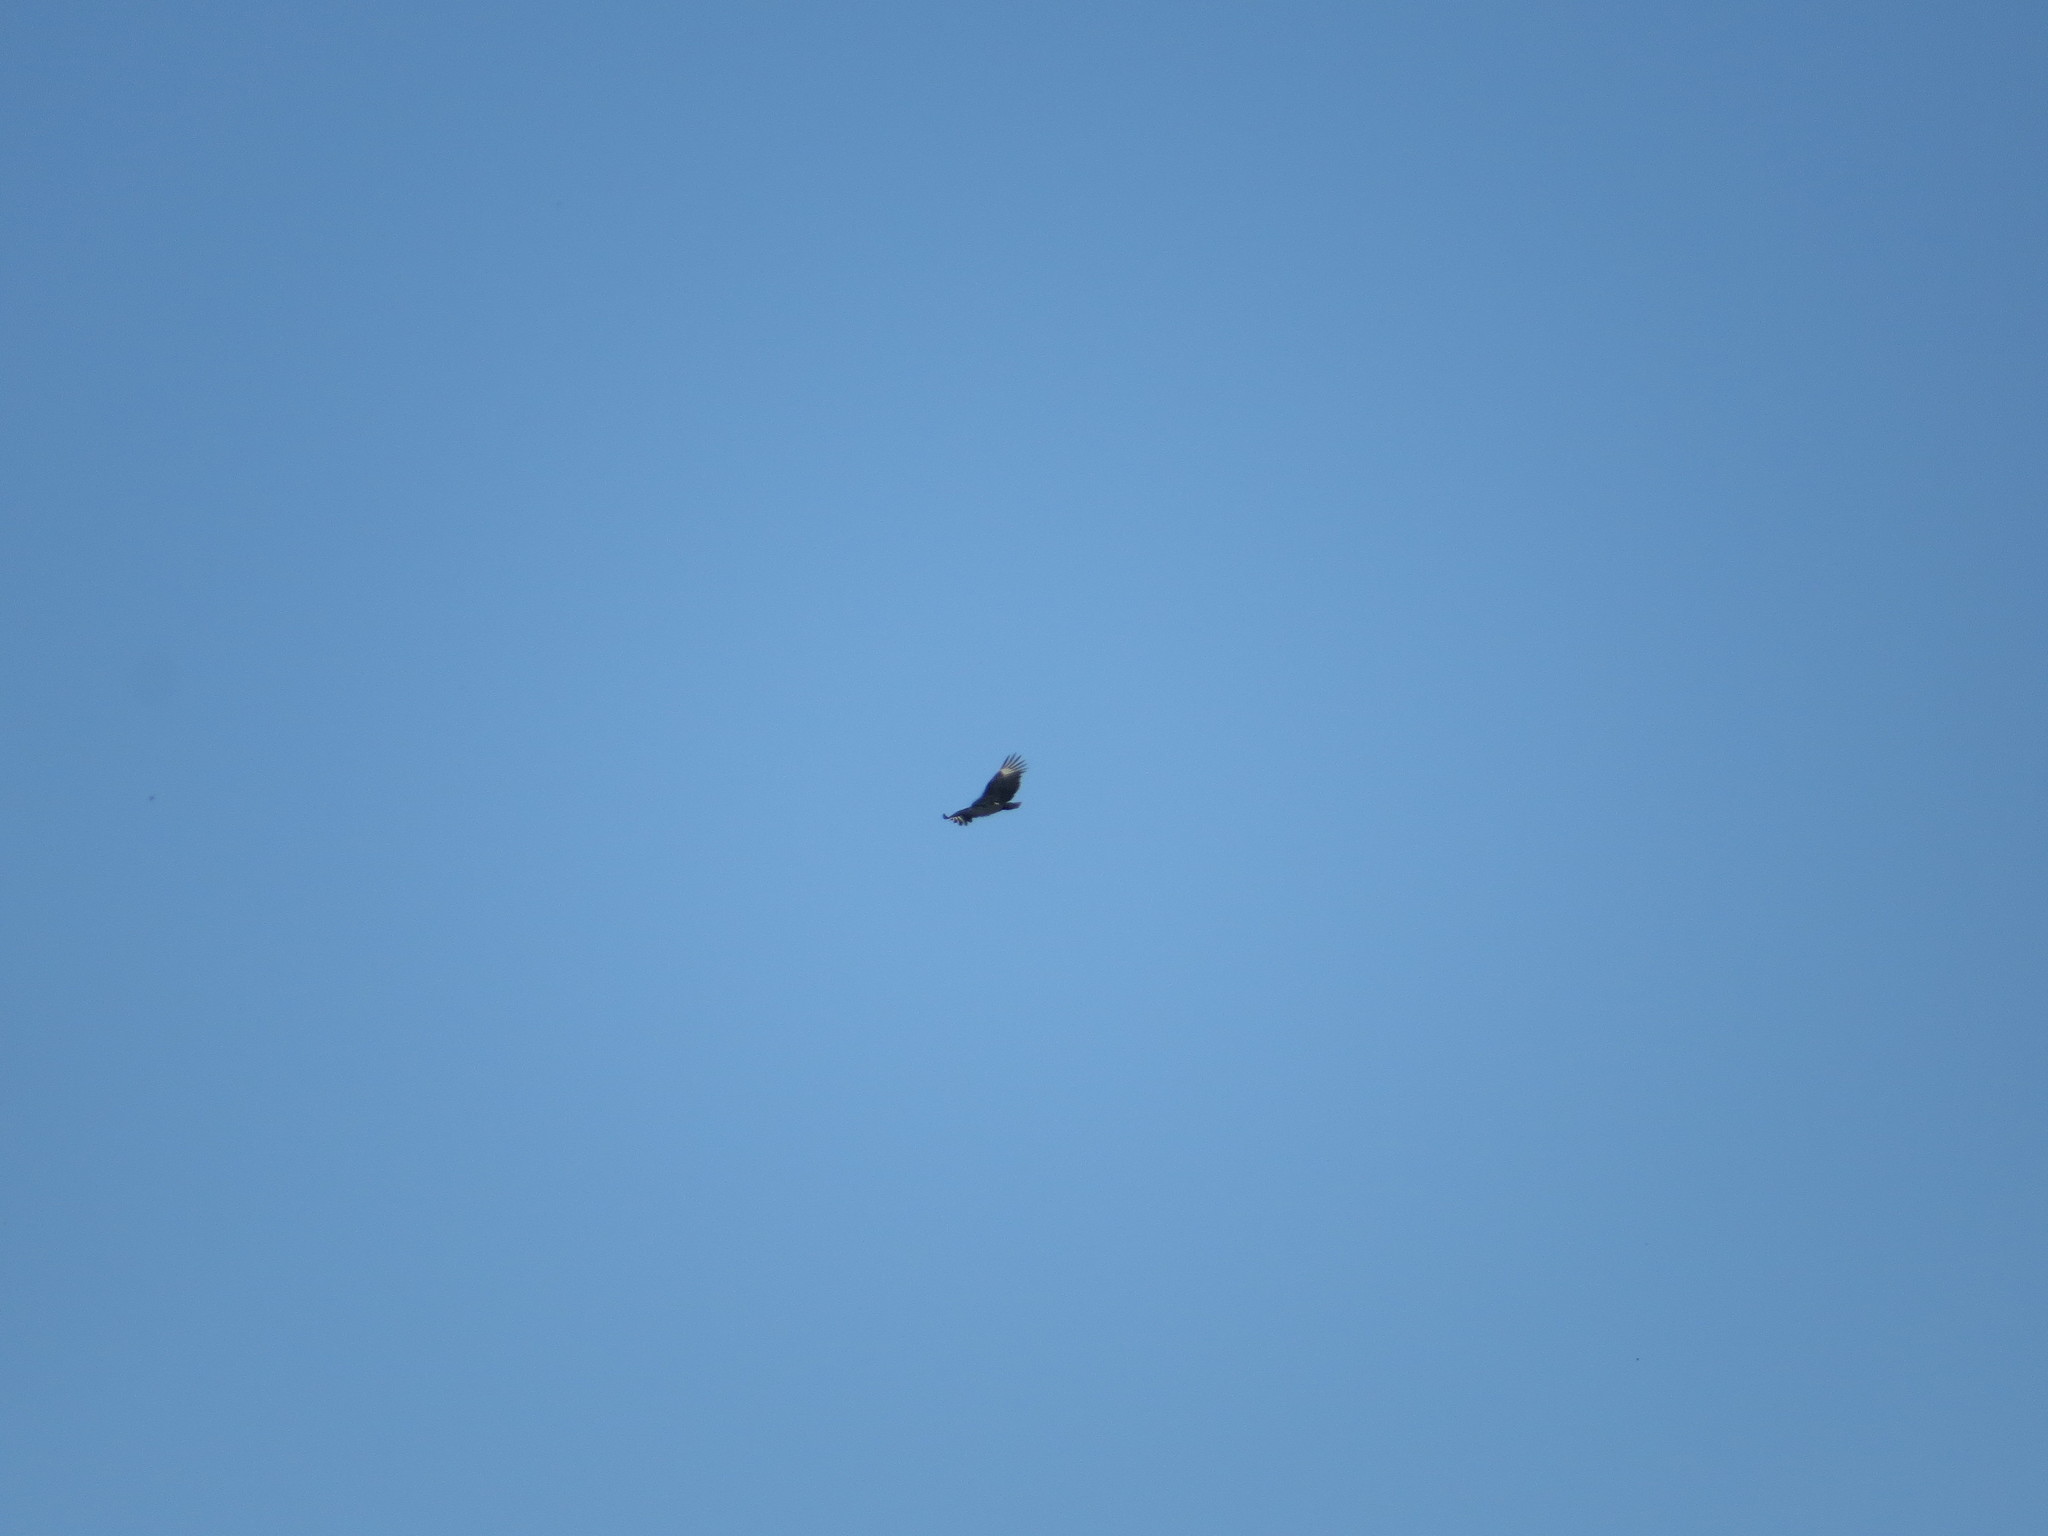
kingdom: Animalia
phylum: Chordata
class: Aves
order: Accipitriformes
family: Cathartidae
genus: Coragyps
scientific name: Coragyps atratus
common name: Black vulture
